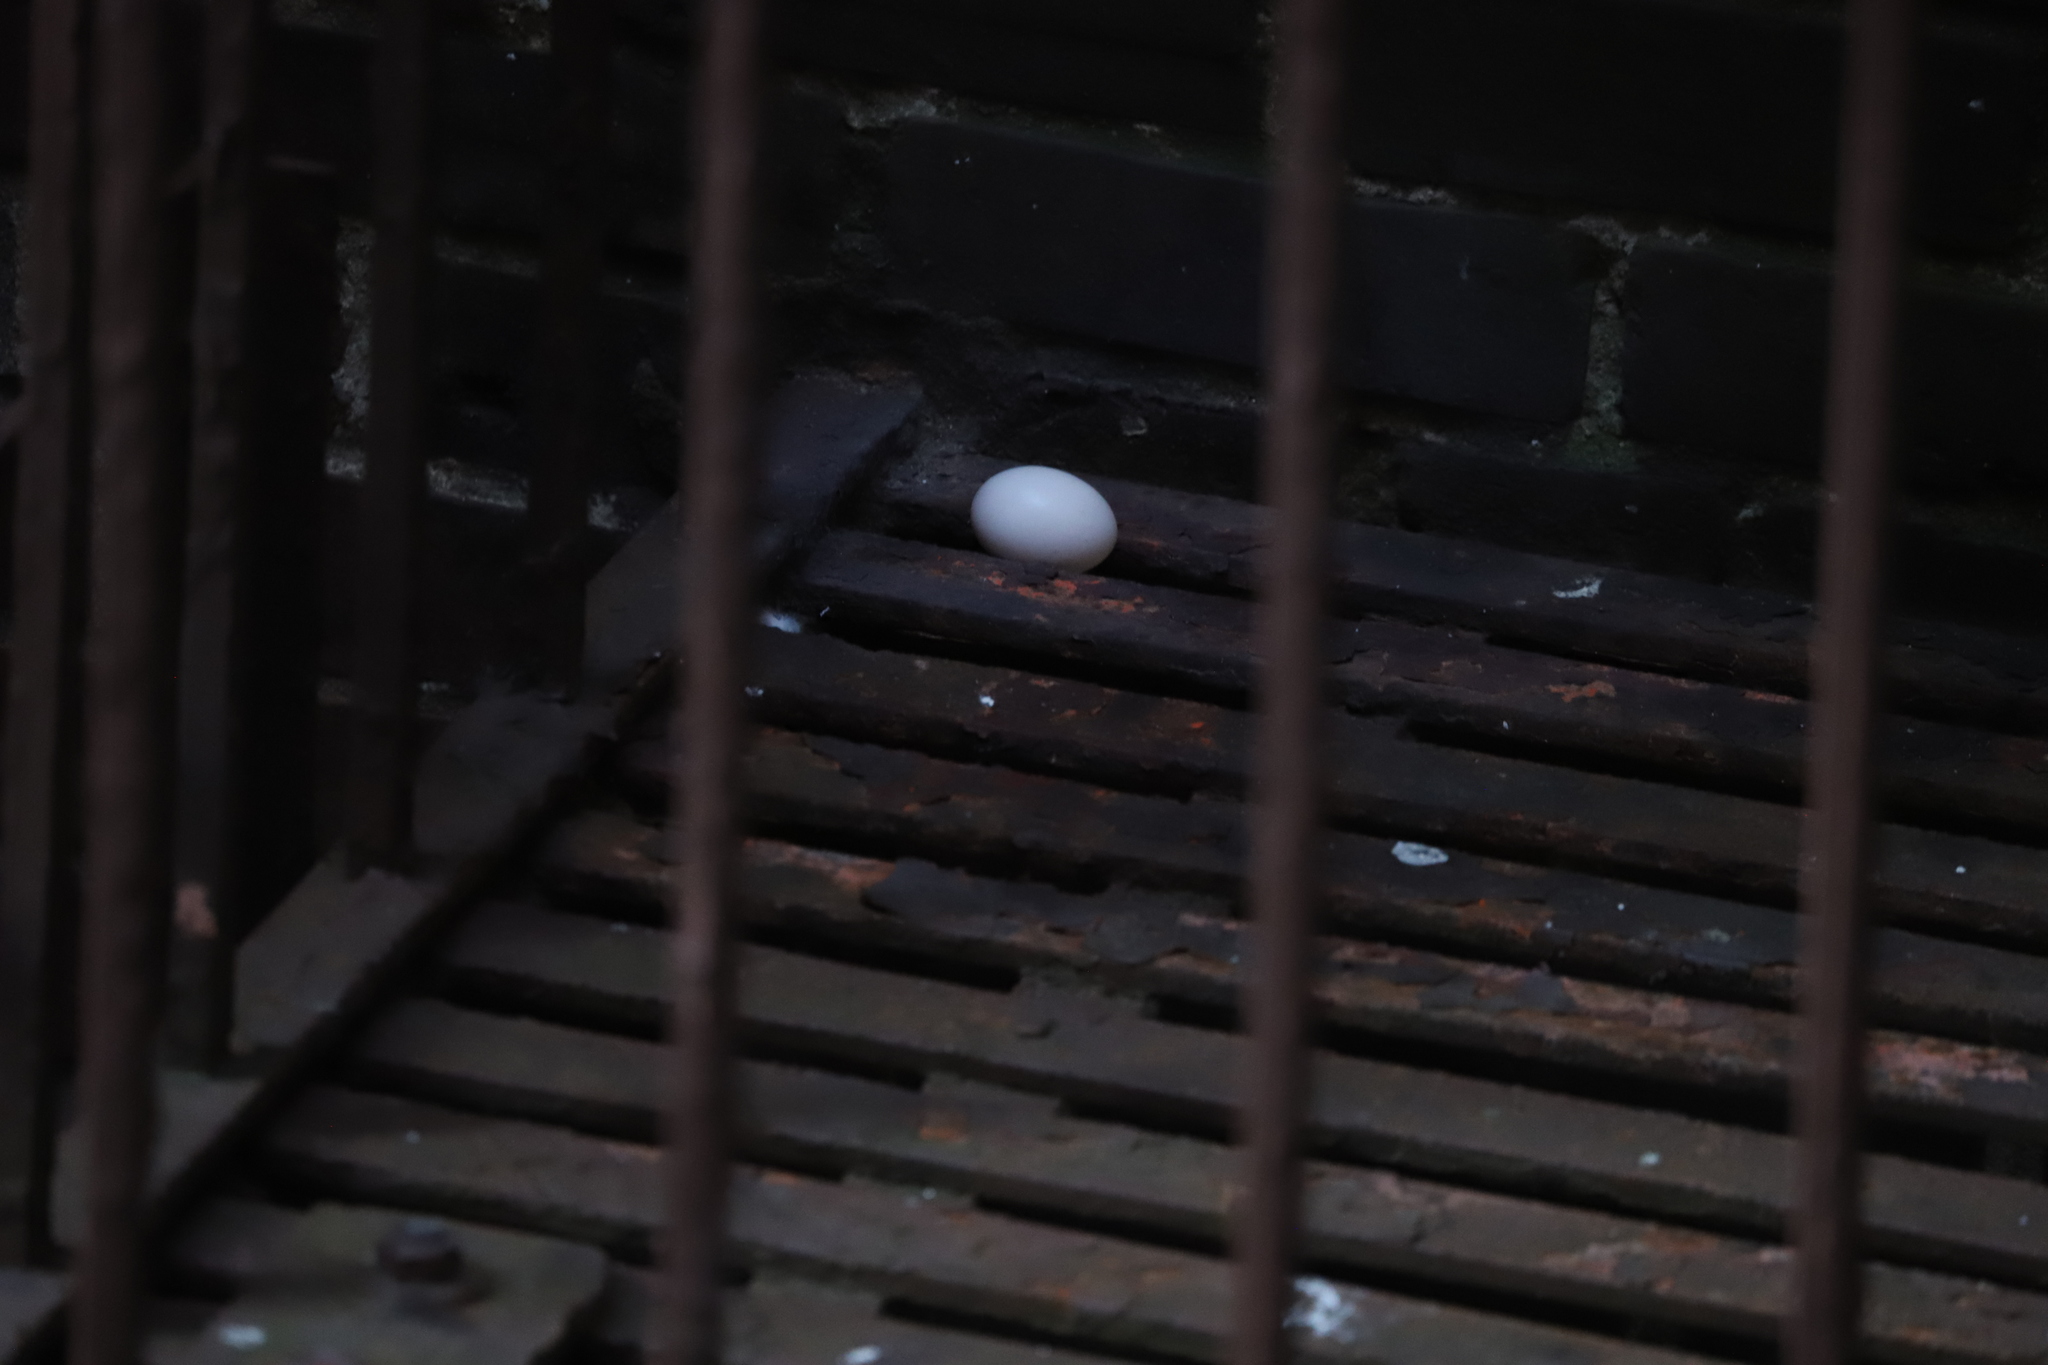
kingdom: Animalia
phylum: Chordata
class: Aves
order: Columbiformes
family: Columbidae
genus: Columba
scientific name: Columba livia
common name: Rock pigeon
